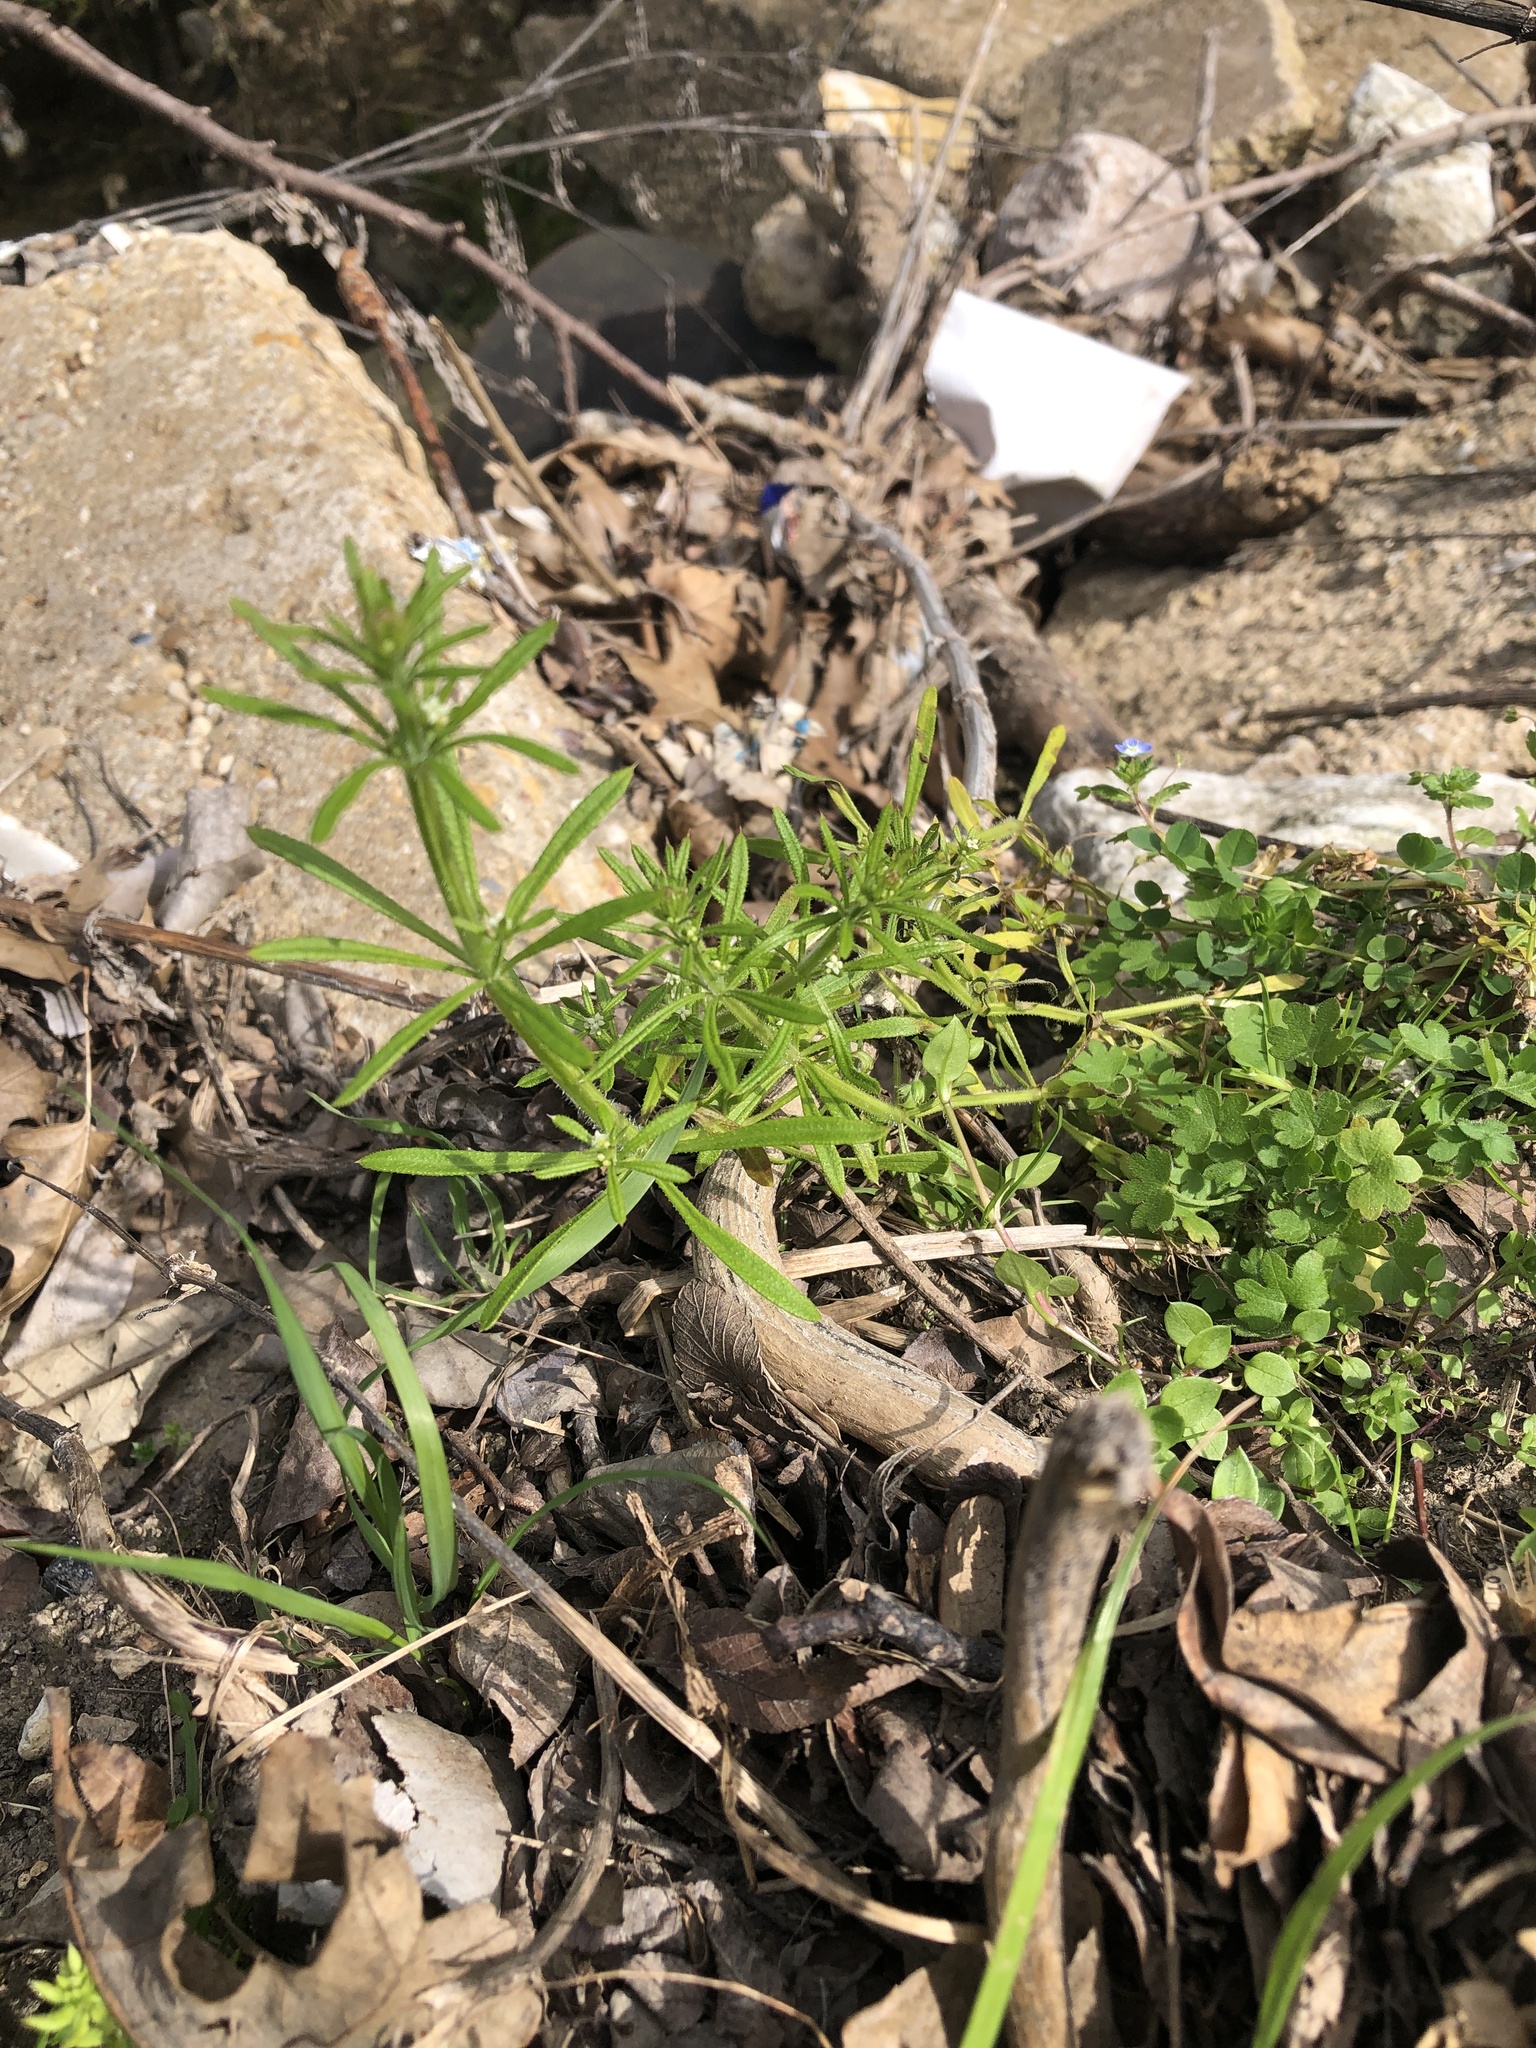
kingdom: Plantae
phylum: Tracheophyta
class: Magnoliopsida
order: Gentianales
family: Rubiaceae
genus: Galium
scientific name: Galium aparine
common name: Cleavers
